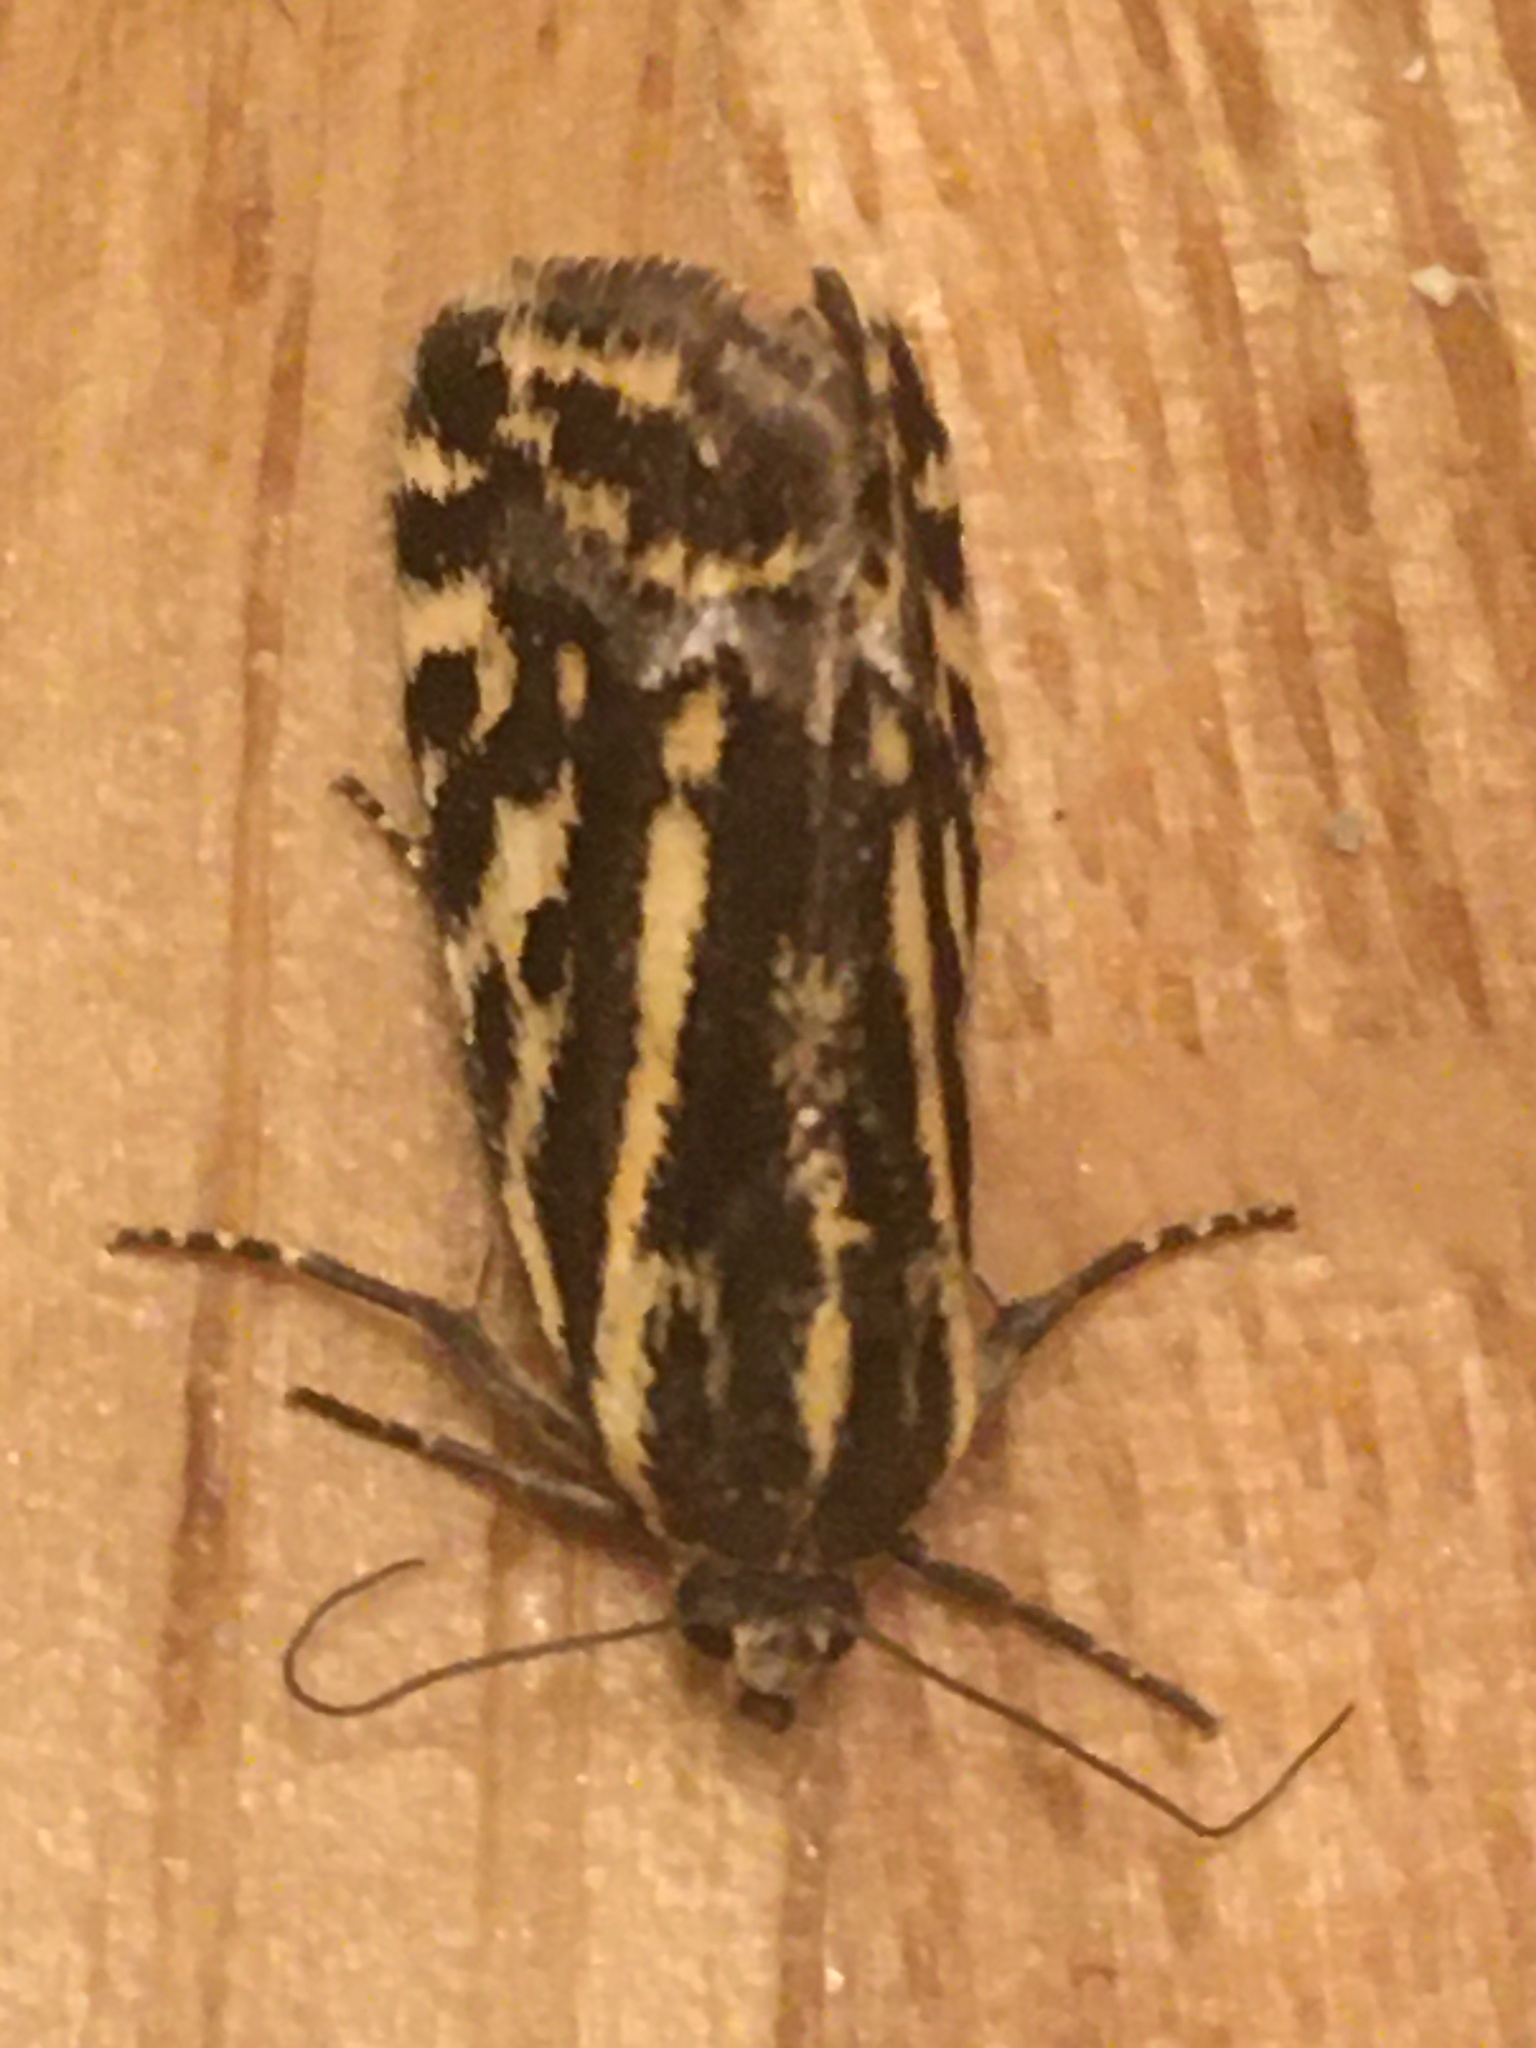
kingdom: Animalia
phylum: Arthropoda
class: Insecta
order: Lepidoptera
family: Noctuidae
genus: Acontia
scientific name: Acontia trabealis
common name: Spotted sulphur
